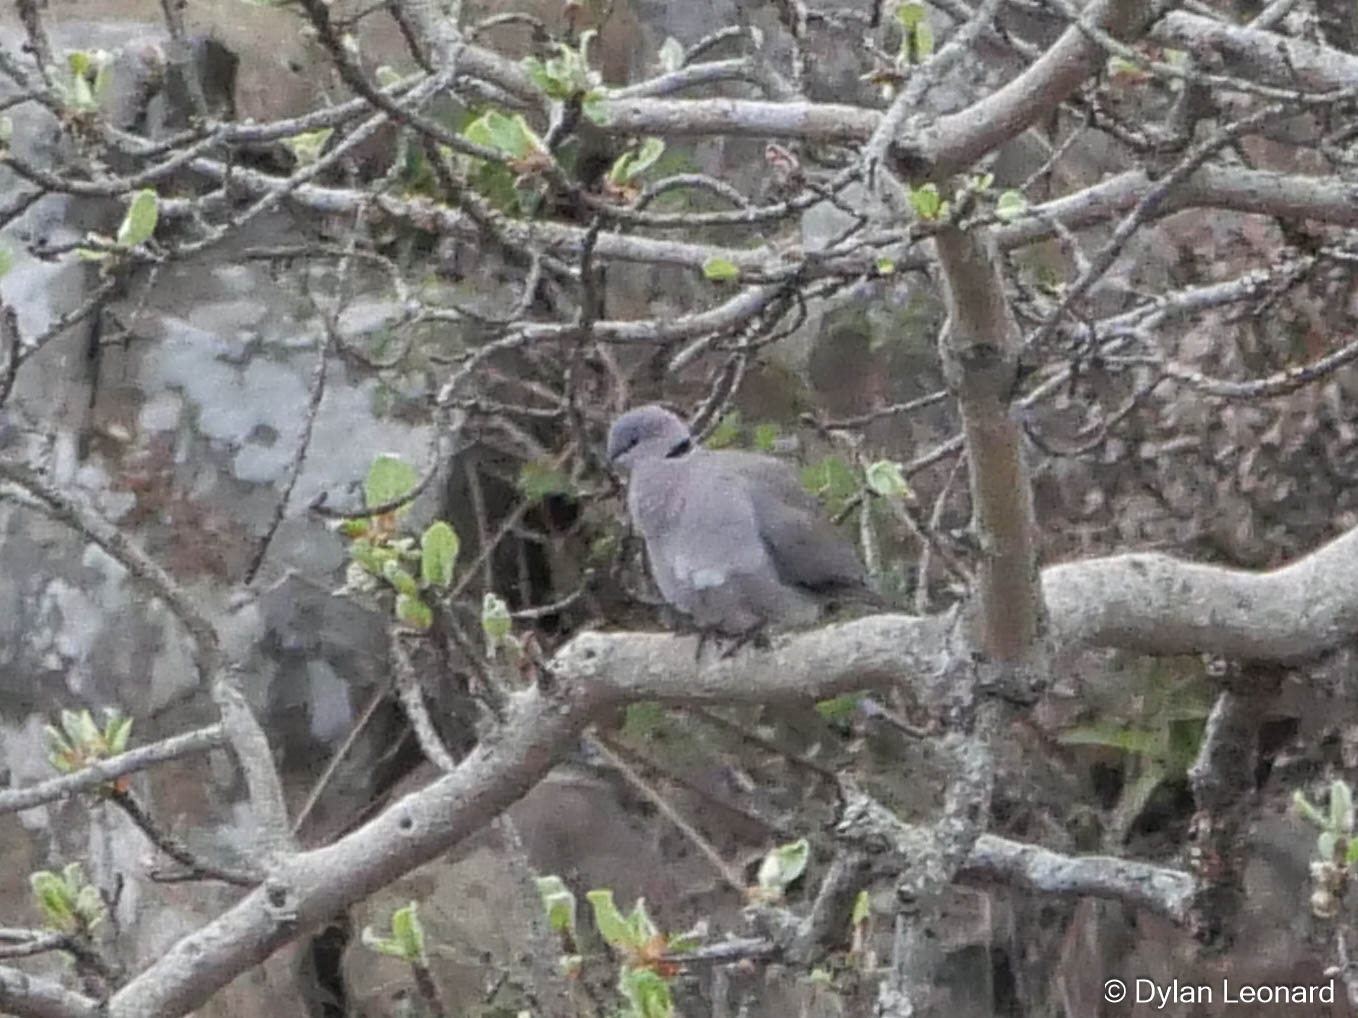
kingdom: Animalia
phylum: Chordata
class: Aves
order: Columbiformes
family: Columbidae
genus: Streptopelia
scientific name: Streptopelia capicola
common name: Ring-necked dove
